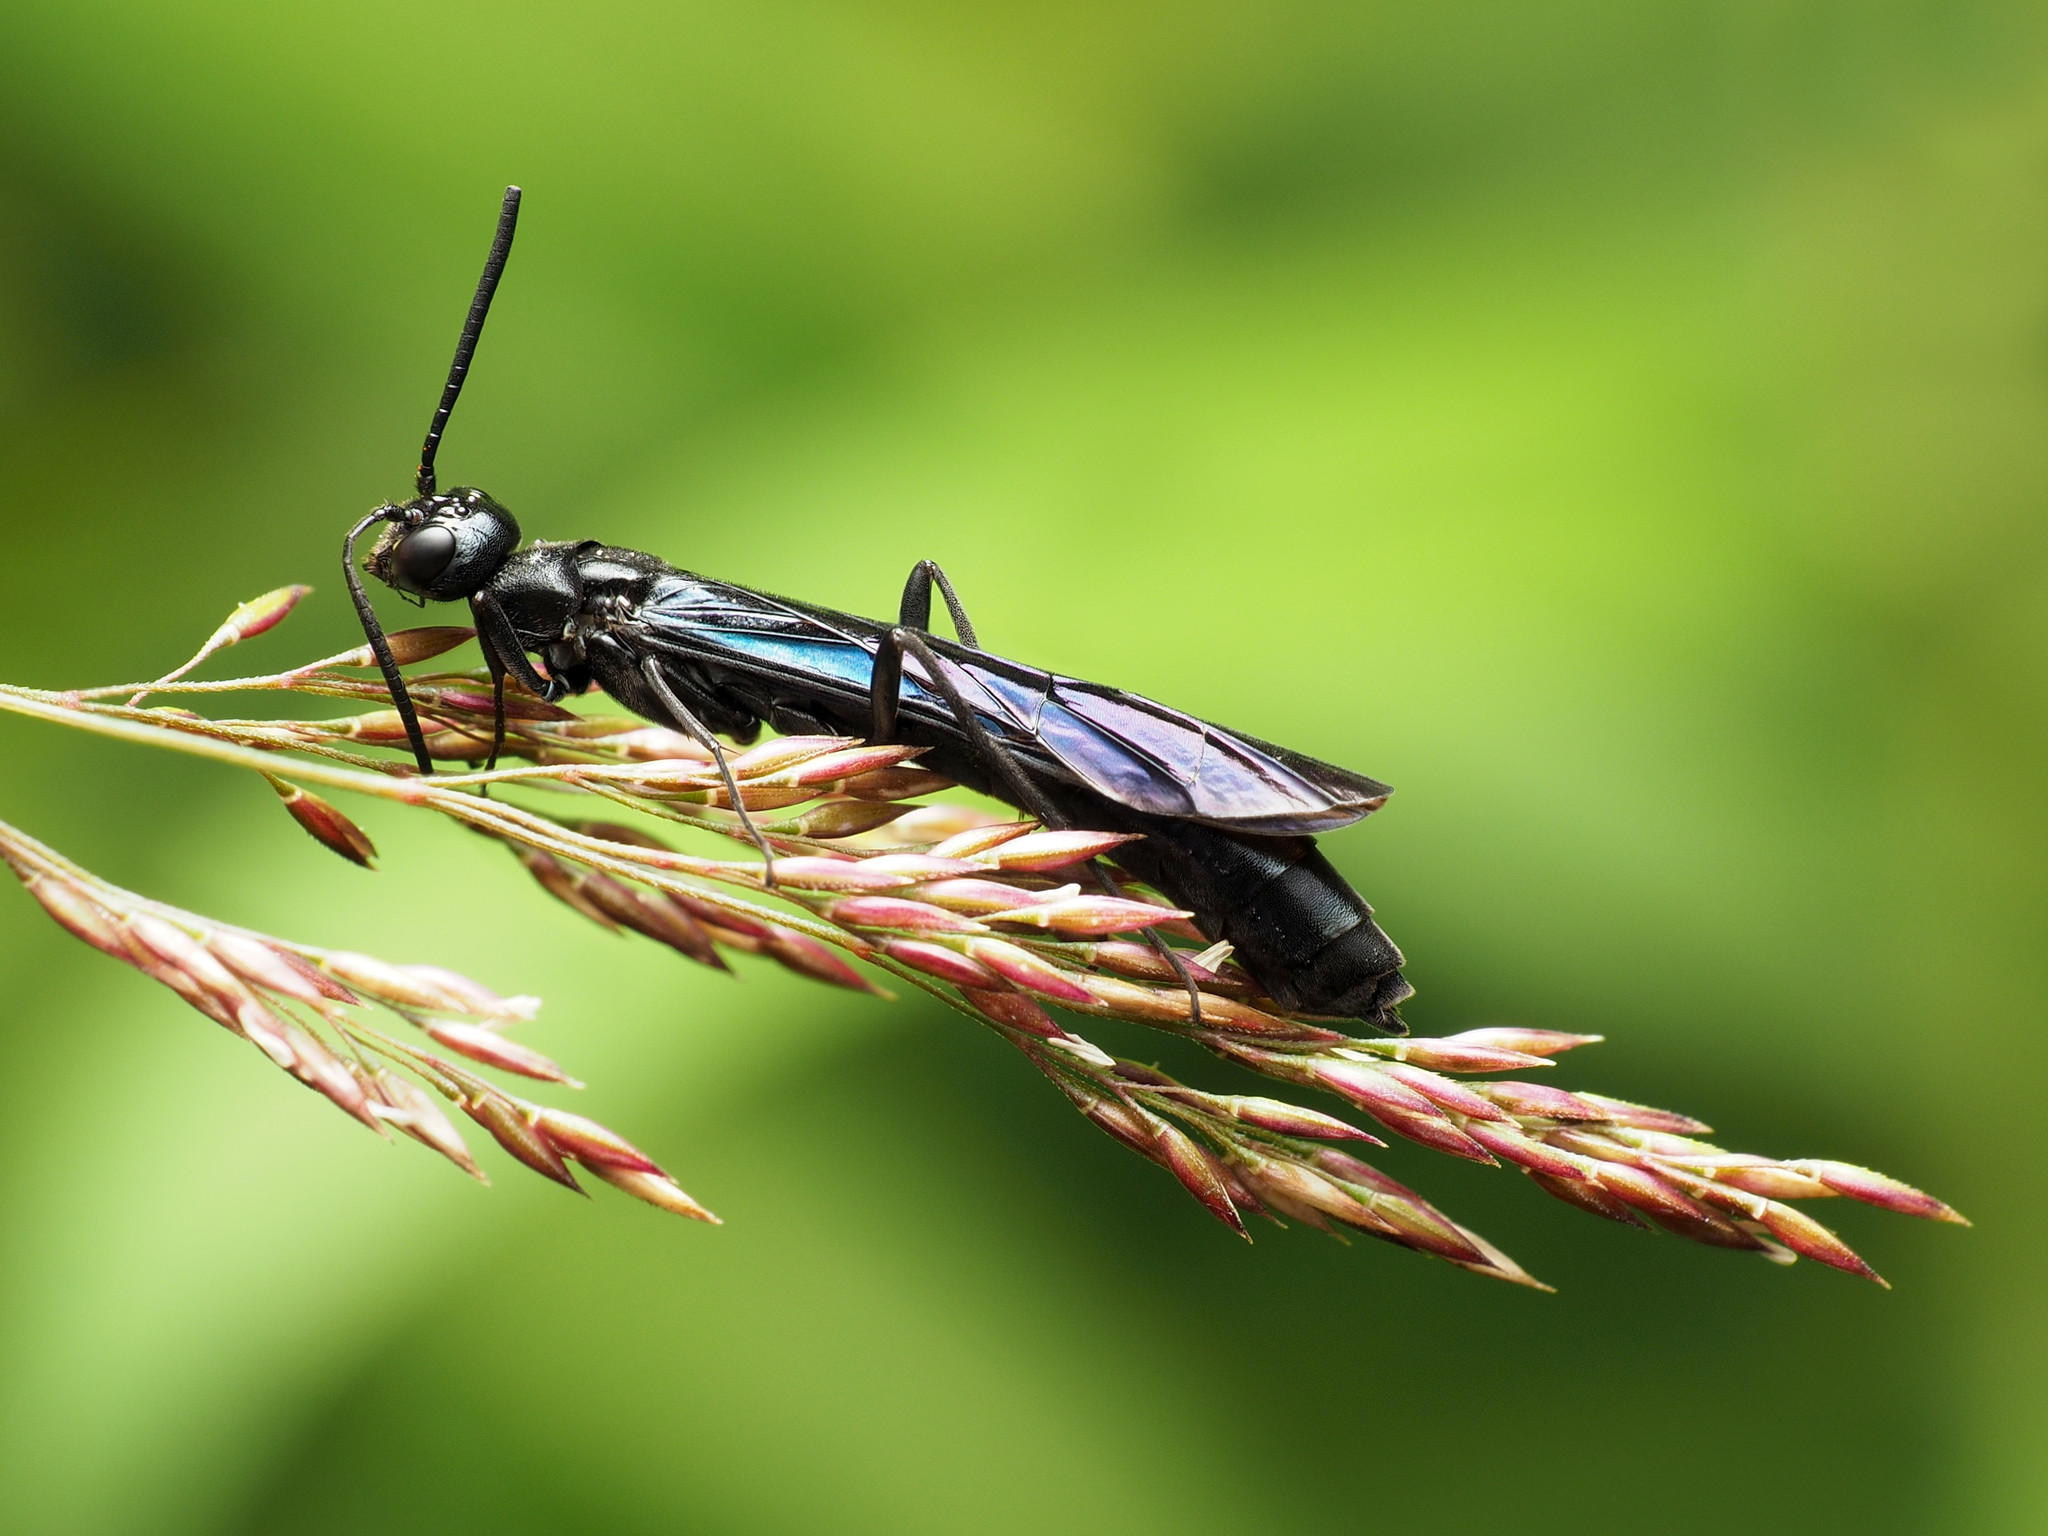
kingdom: Animalia
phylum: Arthropoda
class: Insecta
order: Hymenoptera
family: Cephidae
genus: Phylloecus
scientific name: Phylloecus trimaculatus
